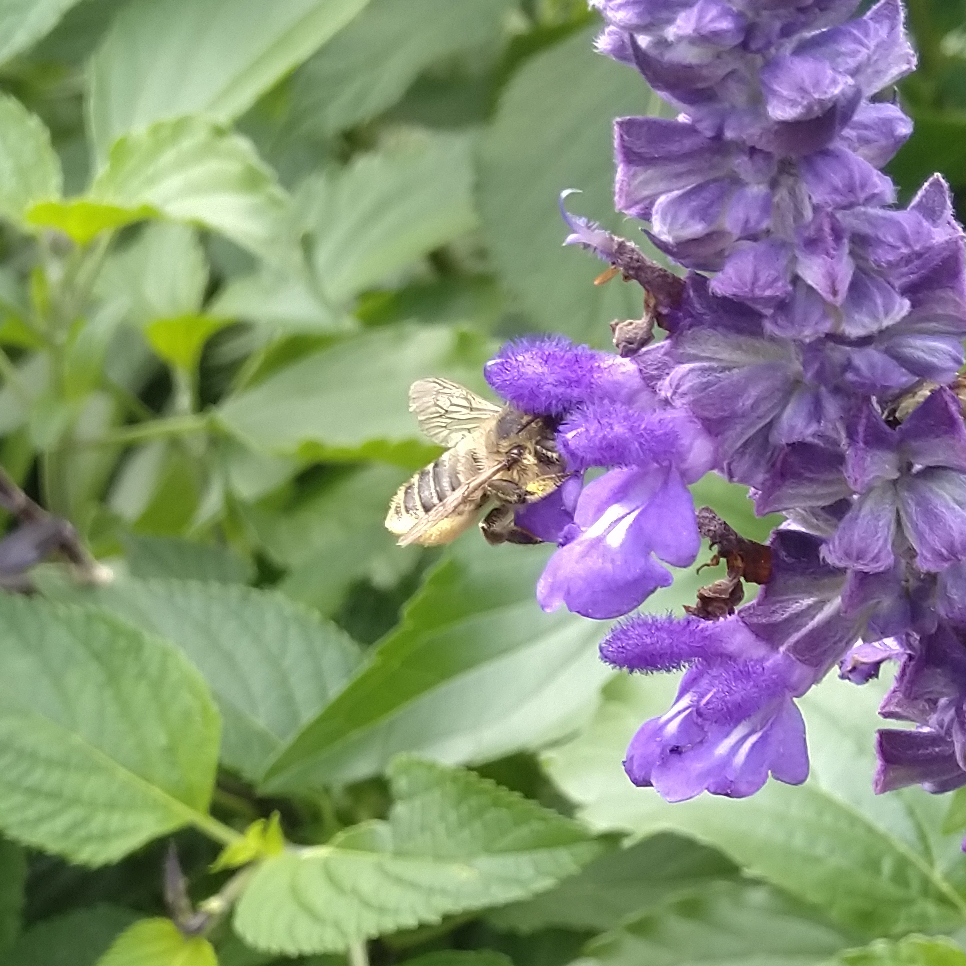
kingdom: Animalia
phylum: Arthropoda
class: Insecta
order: Hymenoptera
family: Megachilidae
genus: Megachile
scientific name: Megachile latimanus
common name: Leafcutting bee
